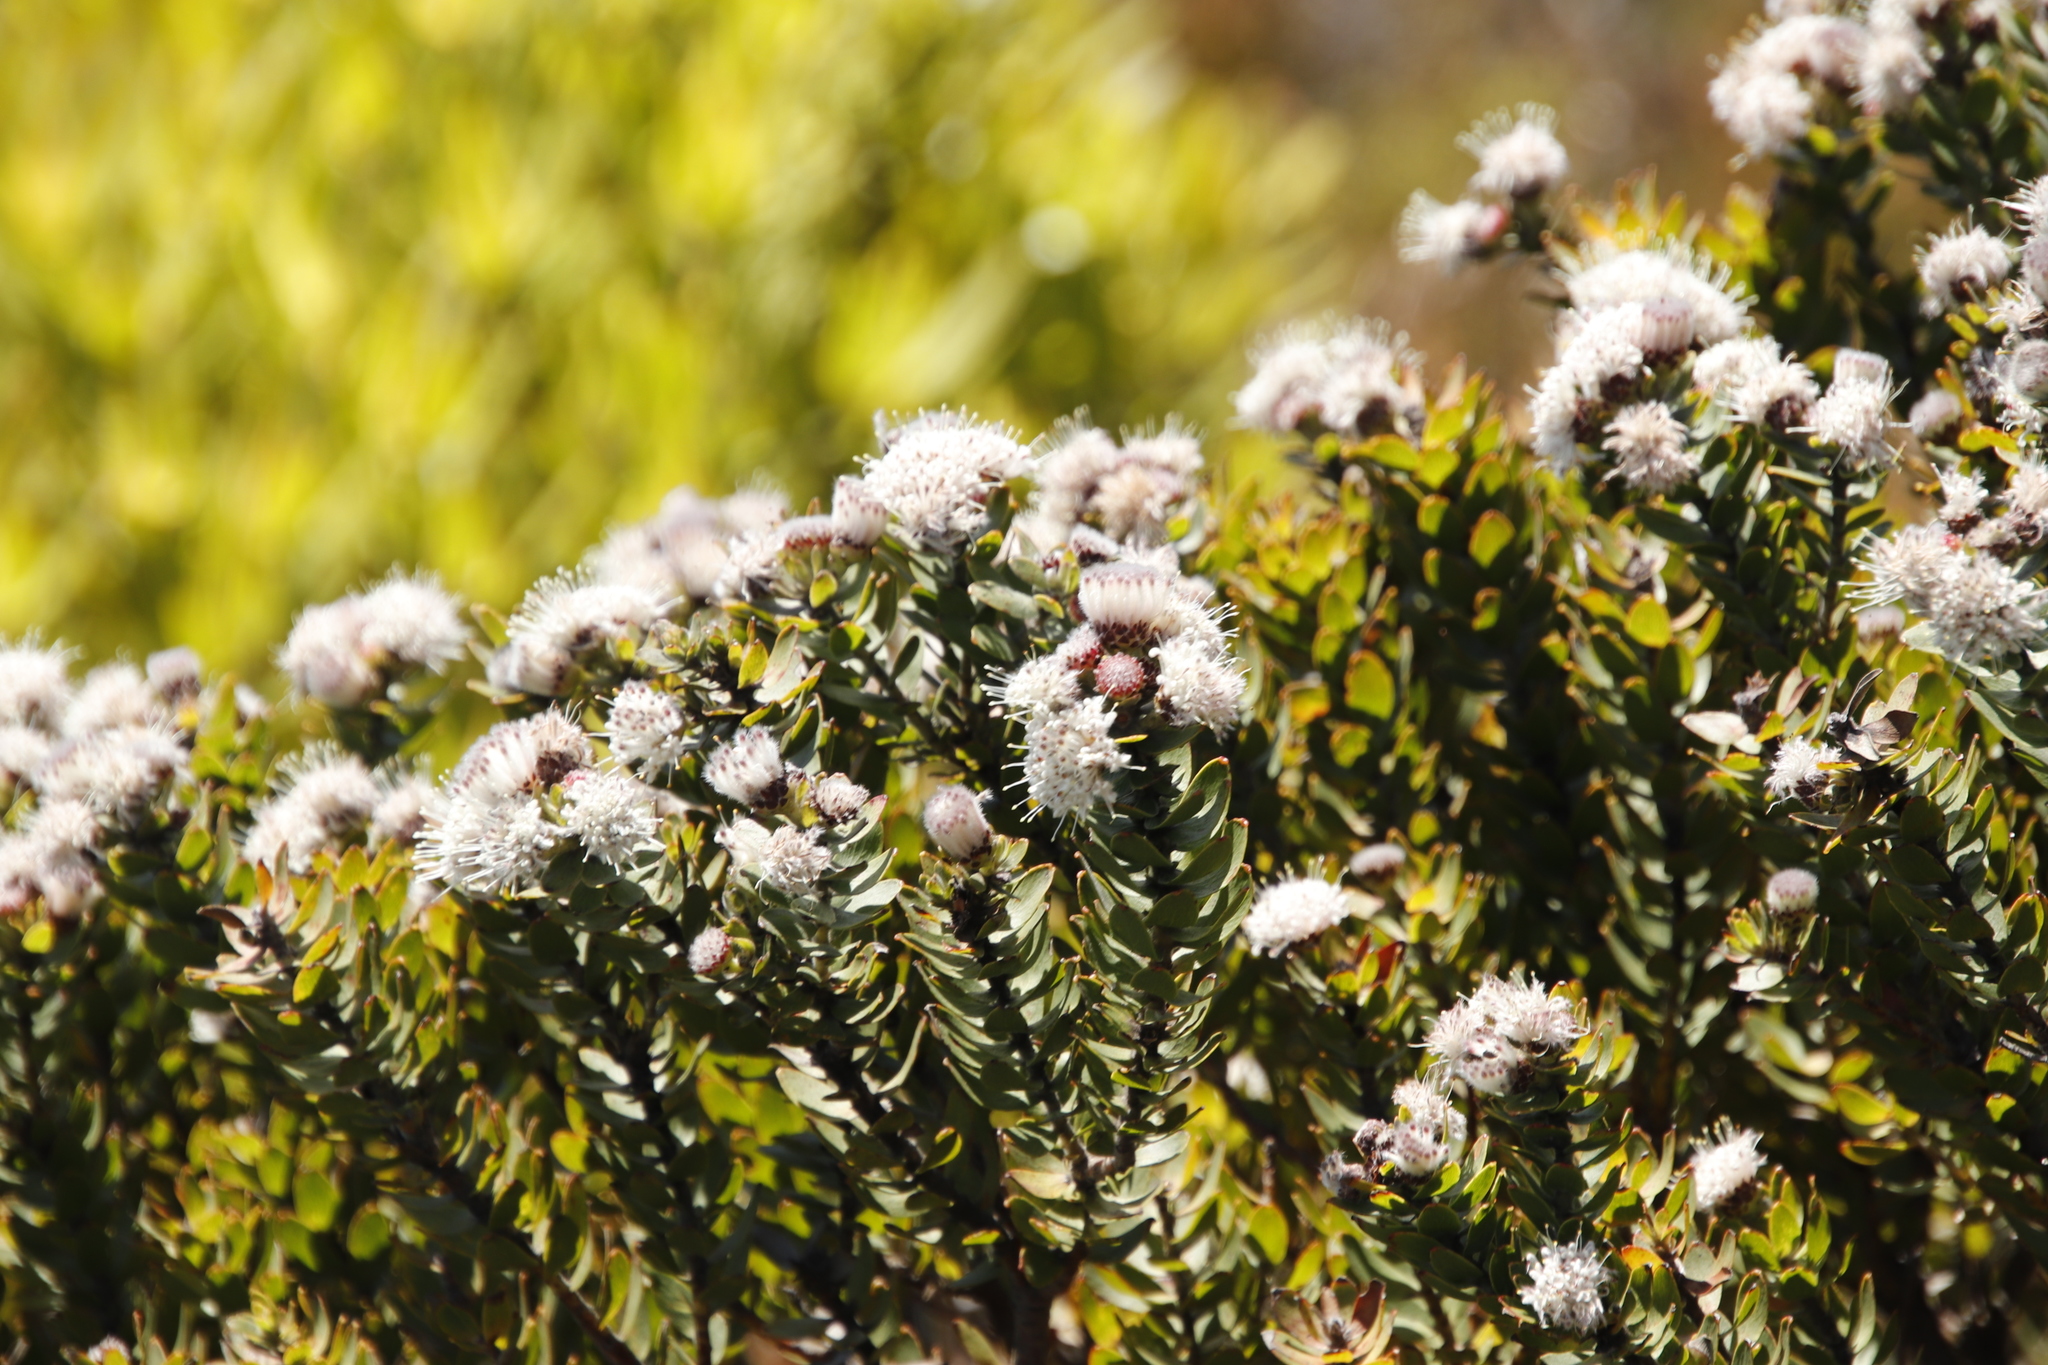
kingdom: Plantae
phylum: Tracheophyta
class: Magnoliopsida
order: Proteales
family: Proteaceae
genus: Leucospermum
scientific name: Leucospermum bolusii
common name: Gordon's bay pincushion
